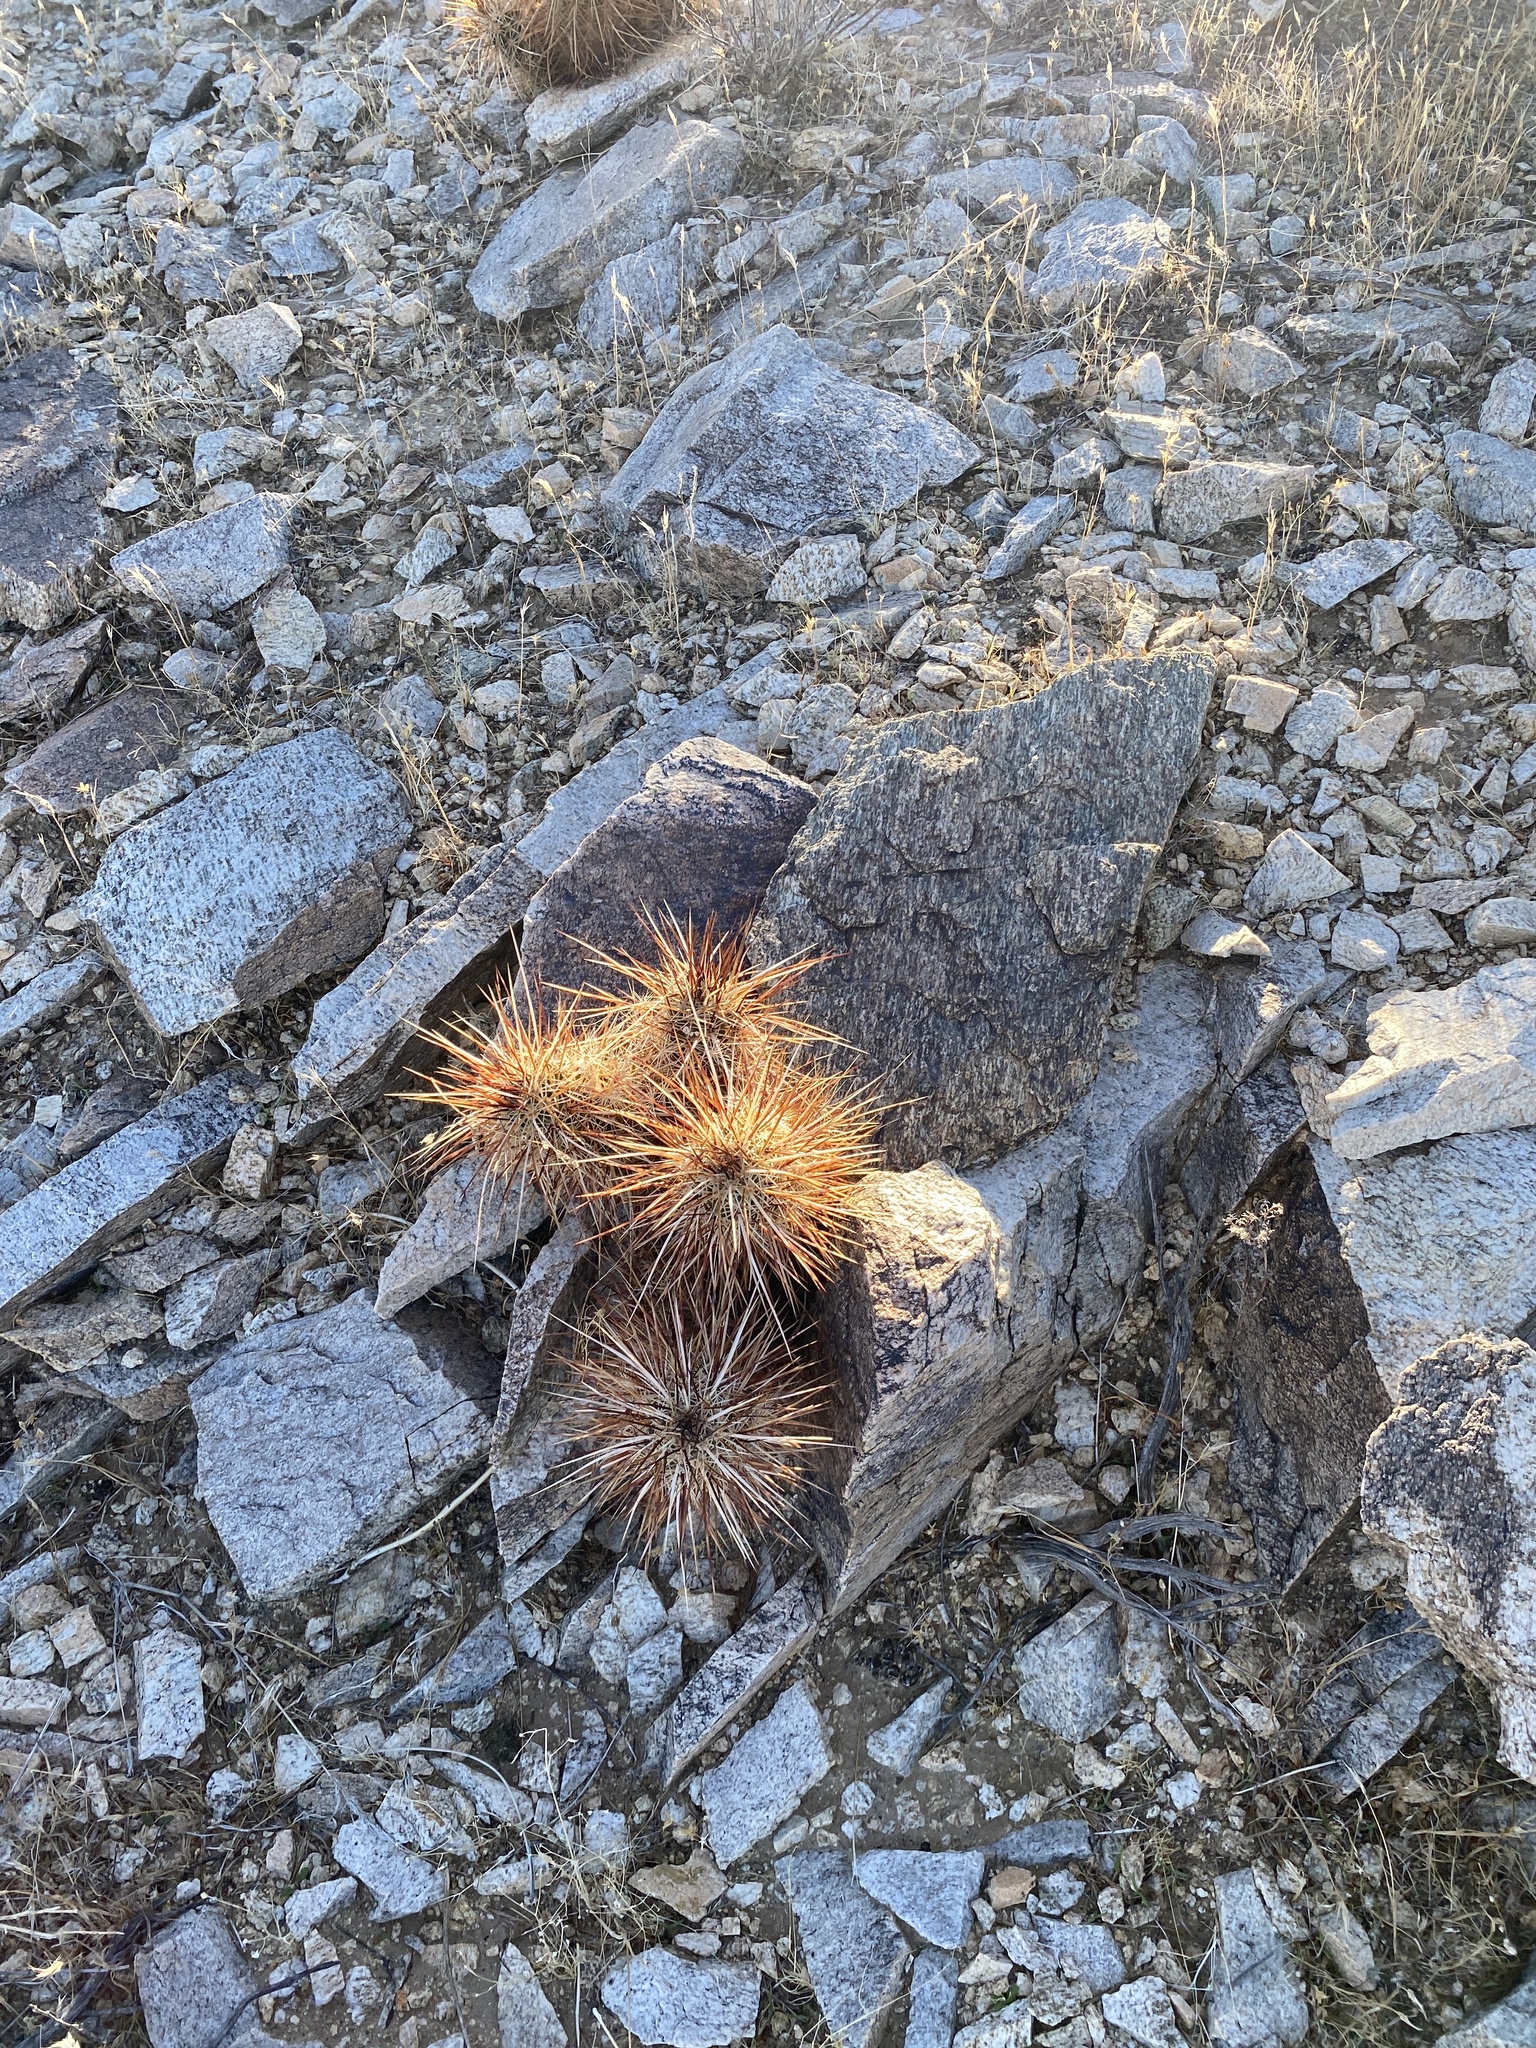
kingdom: Plantae
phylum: Tracheophyta
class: Magnoliopsida
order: Caryophyllales
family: Cactaceae
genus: Echinocereus
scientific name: Echinocereus engelmannii
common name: Engelmann's hedgehog cactus
